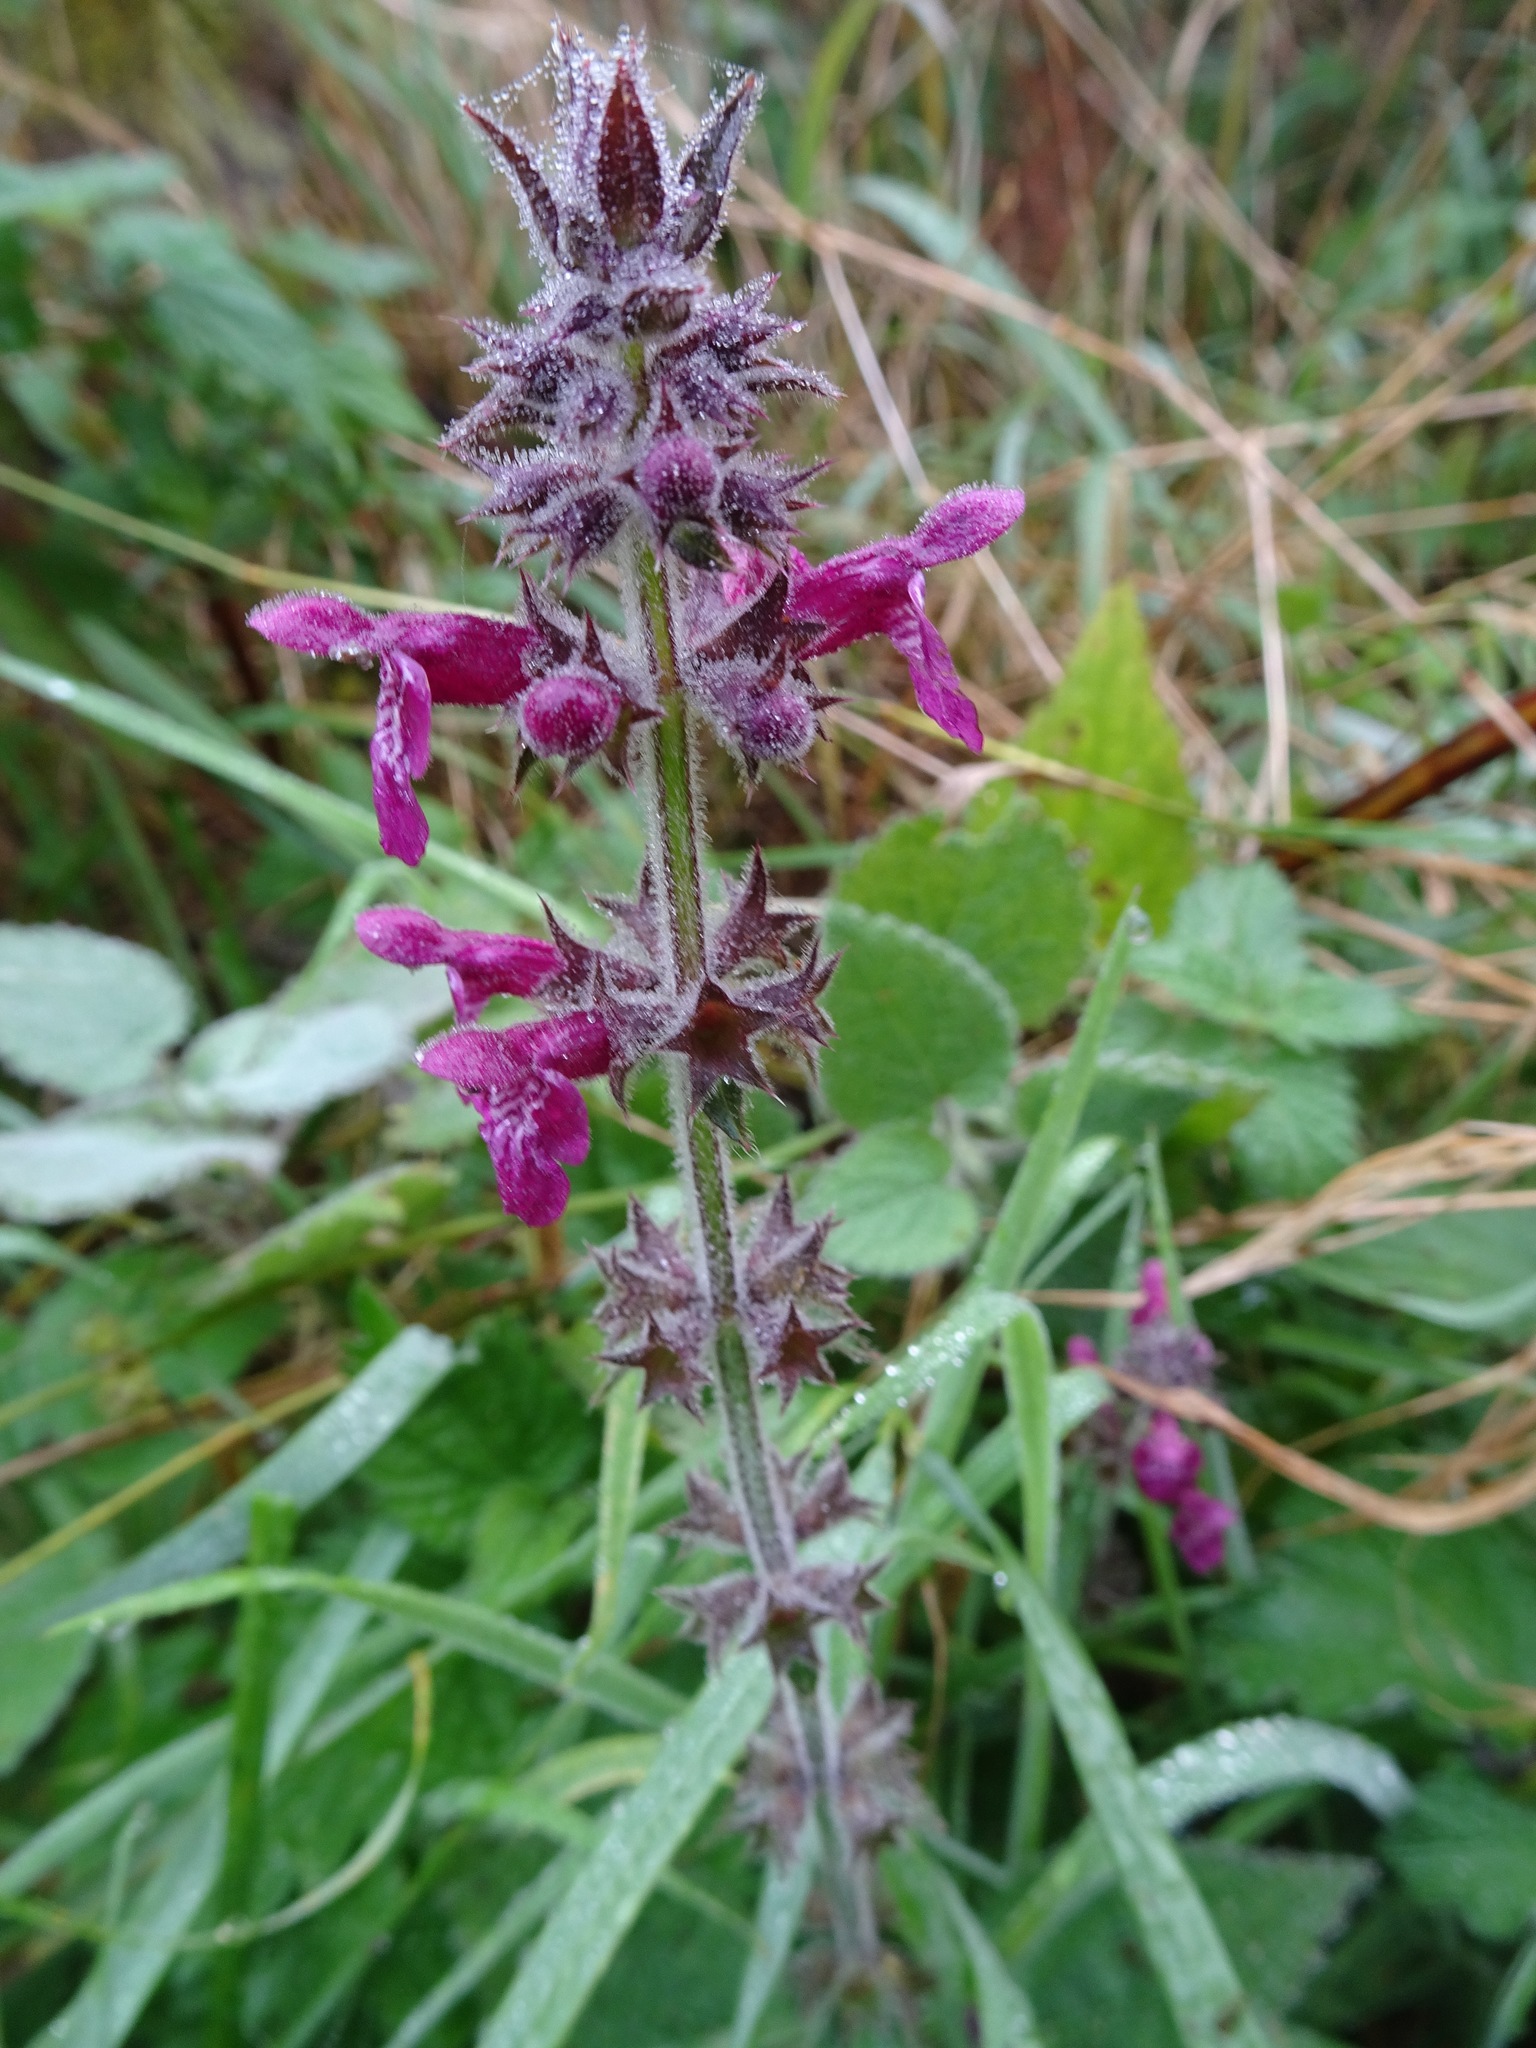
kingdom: Plantae
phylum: Tracheophyta
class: Magnoliopsida
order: Lamiales
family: Lamiaceae
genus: Stachys
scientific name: Stachys sylvatica
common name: Hedge woundwort
